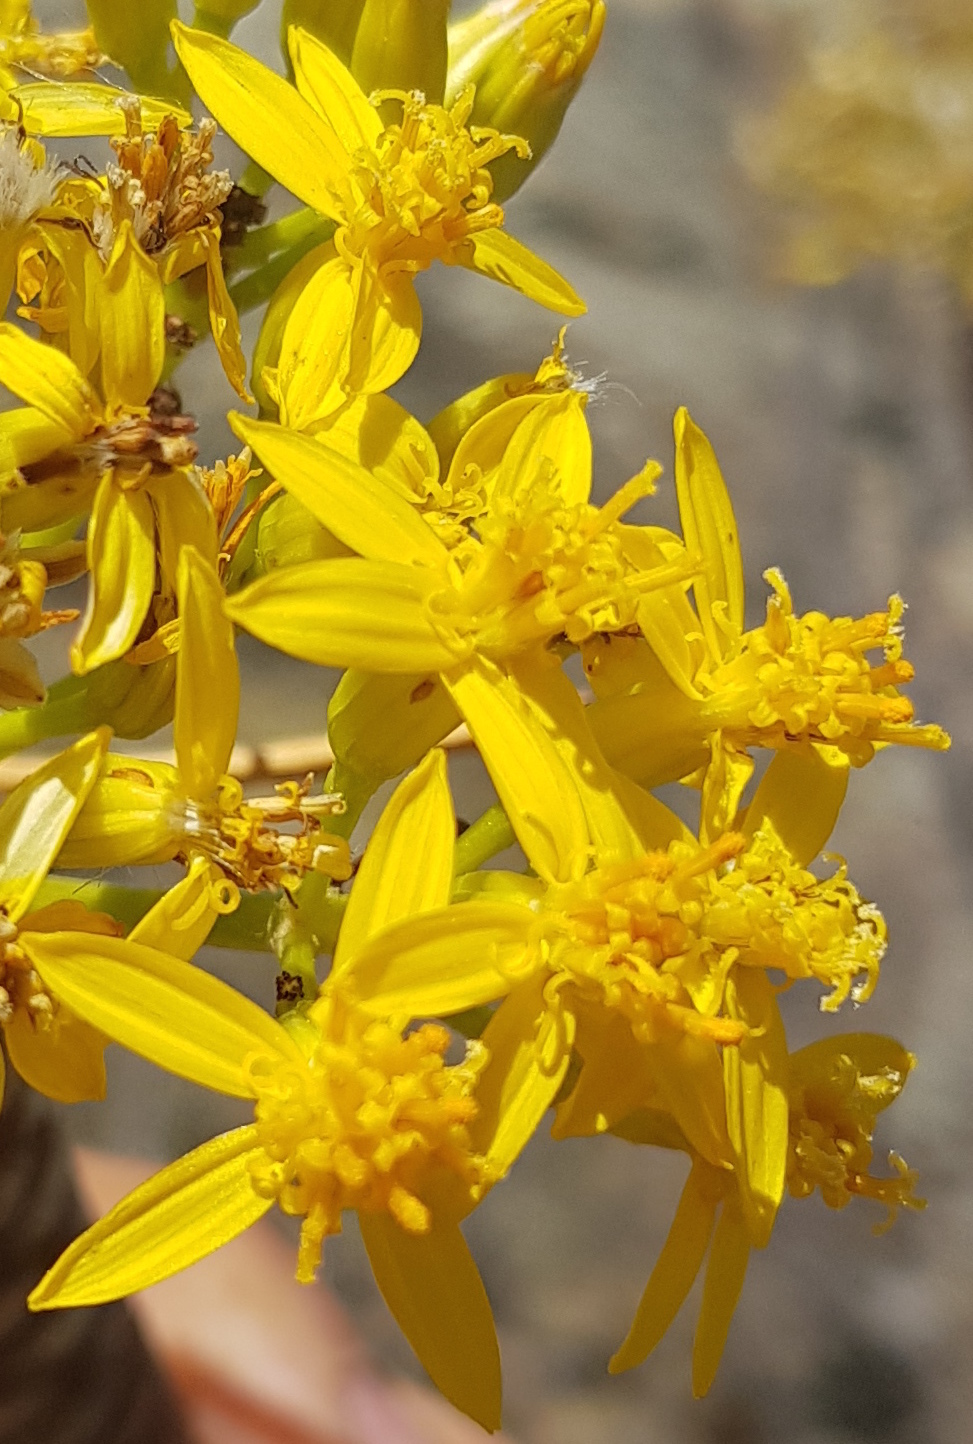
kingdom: Plantae
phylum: Tracheophyta
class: Magnoliopsida
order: Asterales
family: Asteraceae
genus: Pittocaulon
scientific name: Pittocaulon praecox
